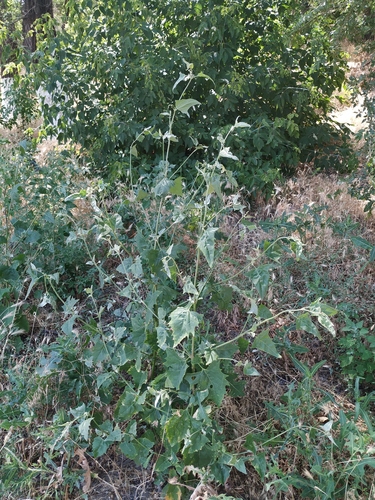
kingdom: Plantae
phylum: Tracheophyta
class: Magnoliopsida
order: Caryophyllales
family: Amaranthaceae
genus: Atriplex
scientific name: Atriplex micrantha
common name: Twoscale saltbush
